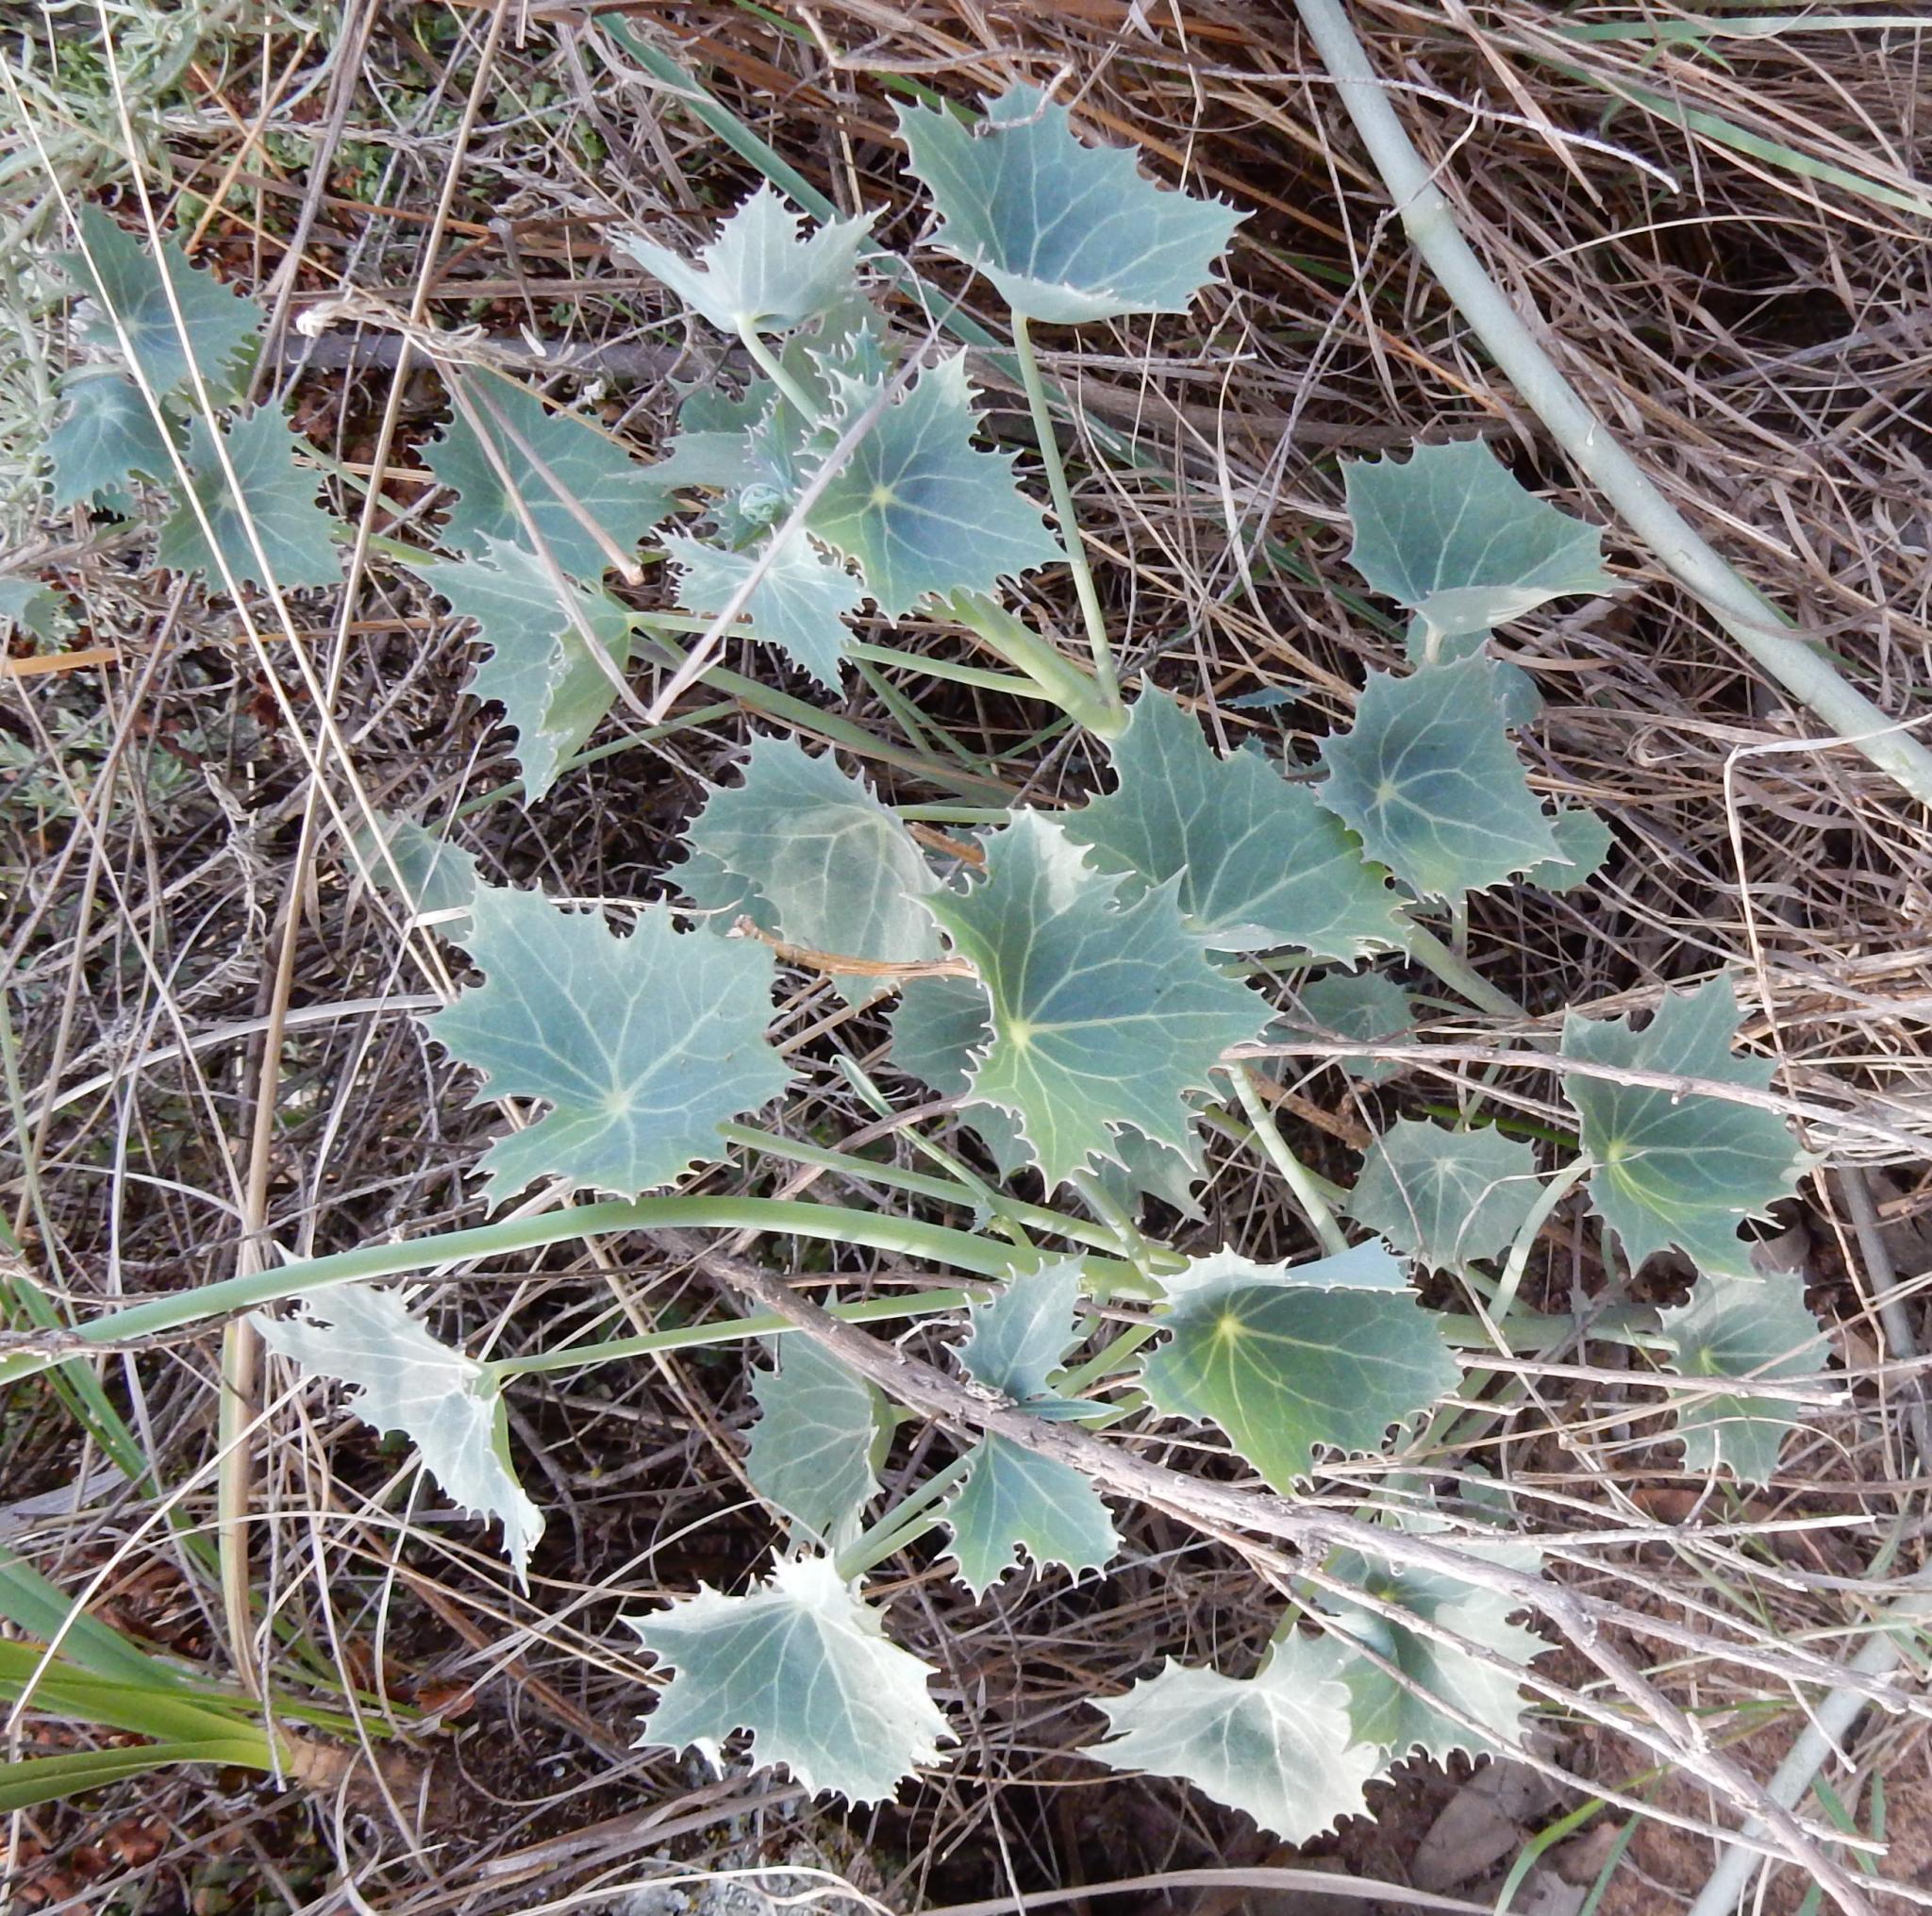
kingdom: Plantae
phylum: Tracheophyta
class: Magnoliopsida
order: Asterales
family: Asteraceae
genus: Senecio
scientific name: Senecio oxyriifolius
